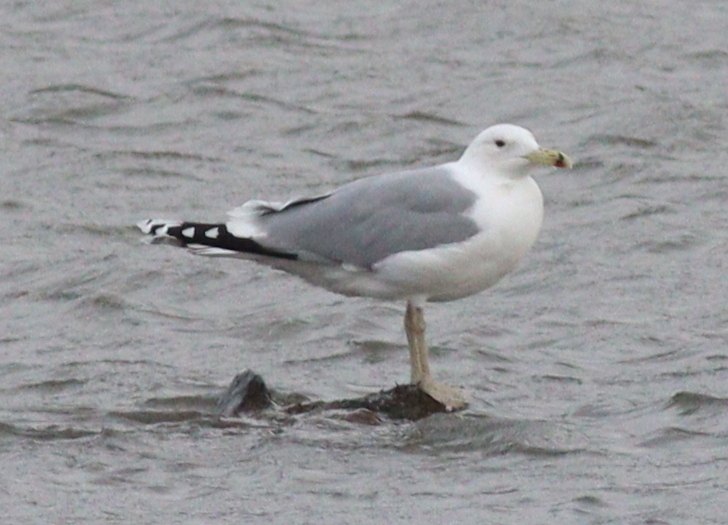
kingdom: Animalia
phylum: Chordata
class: Aves
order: Charadriiformes
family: Laridae
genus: Larus
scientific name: Larus cachinnans
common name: Caspian gull
